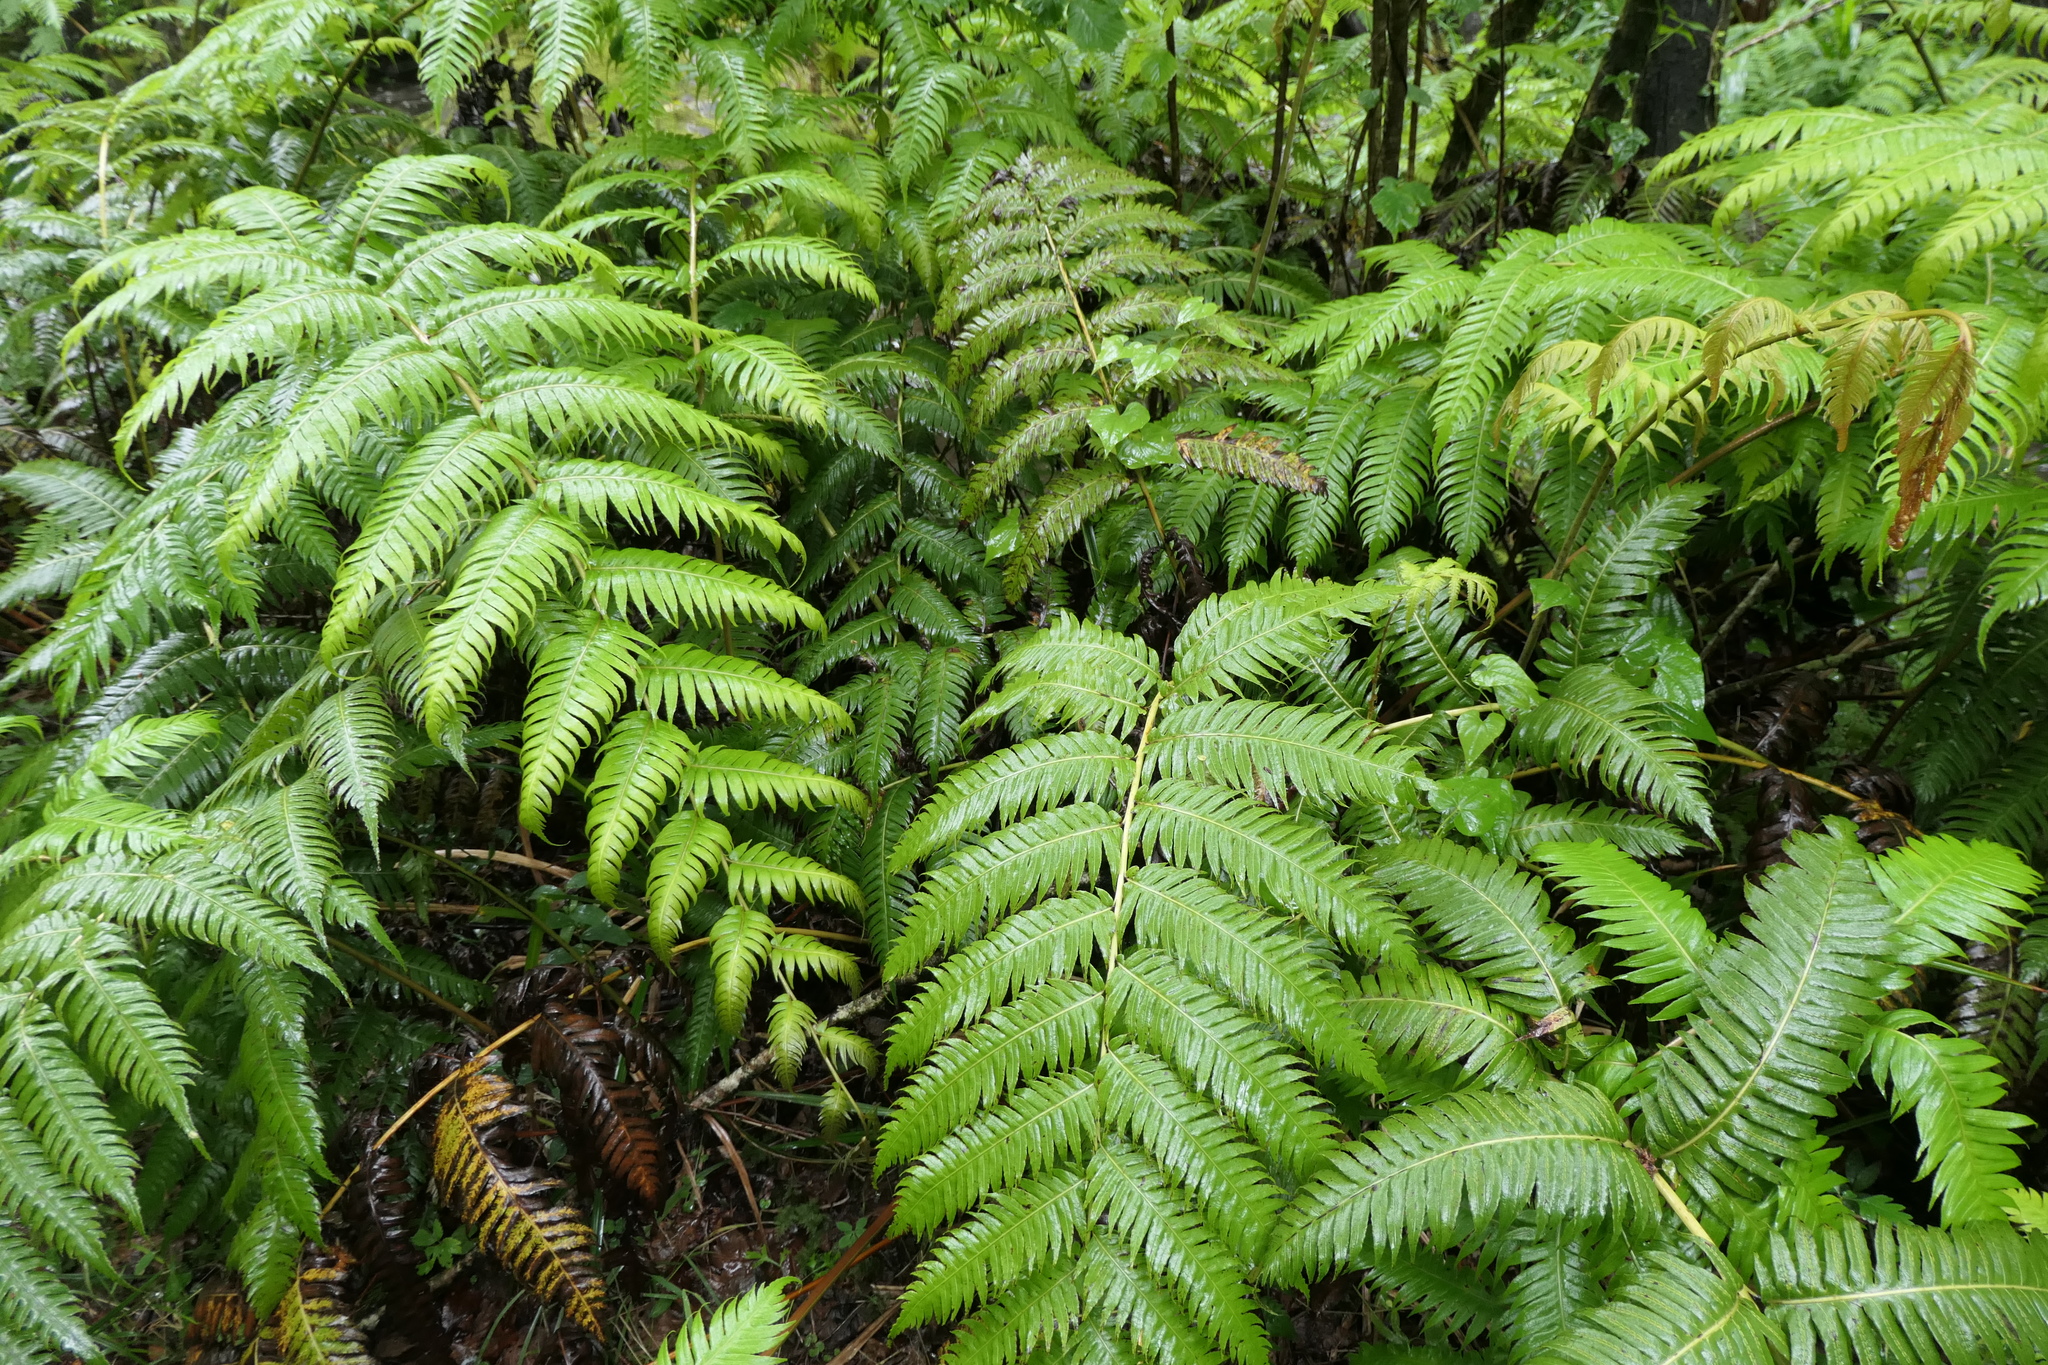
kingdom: Plantae
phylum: Tracheophyta
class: Polypodiopsida
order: Polypodiales
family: Blechnaceae
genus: Woodwardia
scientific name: Woodwardia radicans
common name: Rooting chainfern
